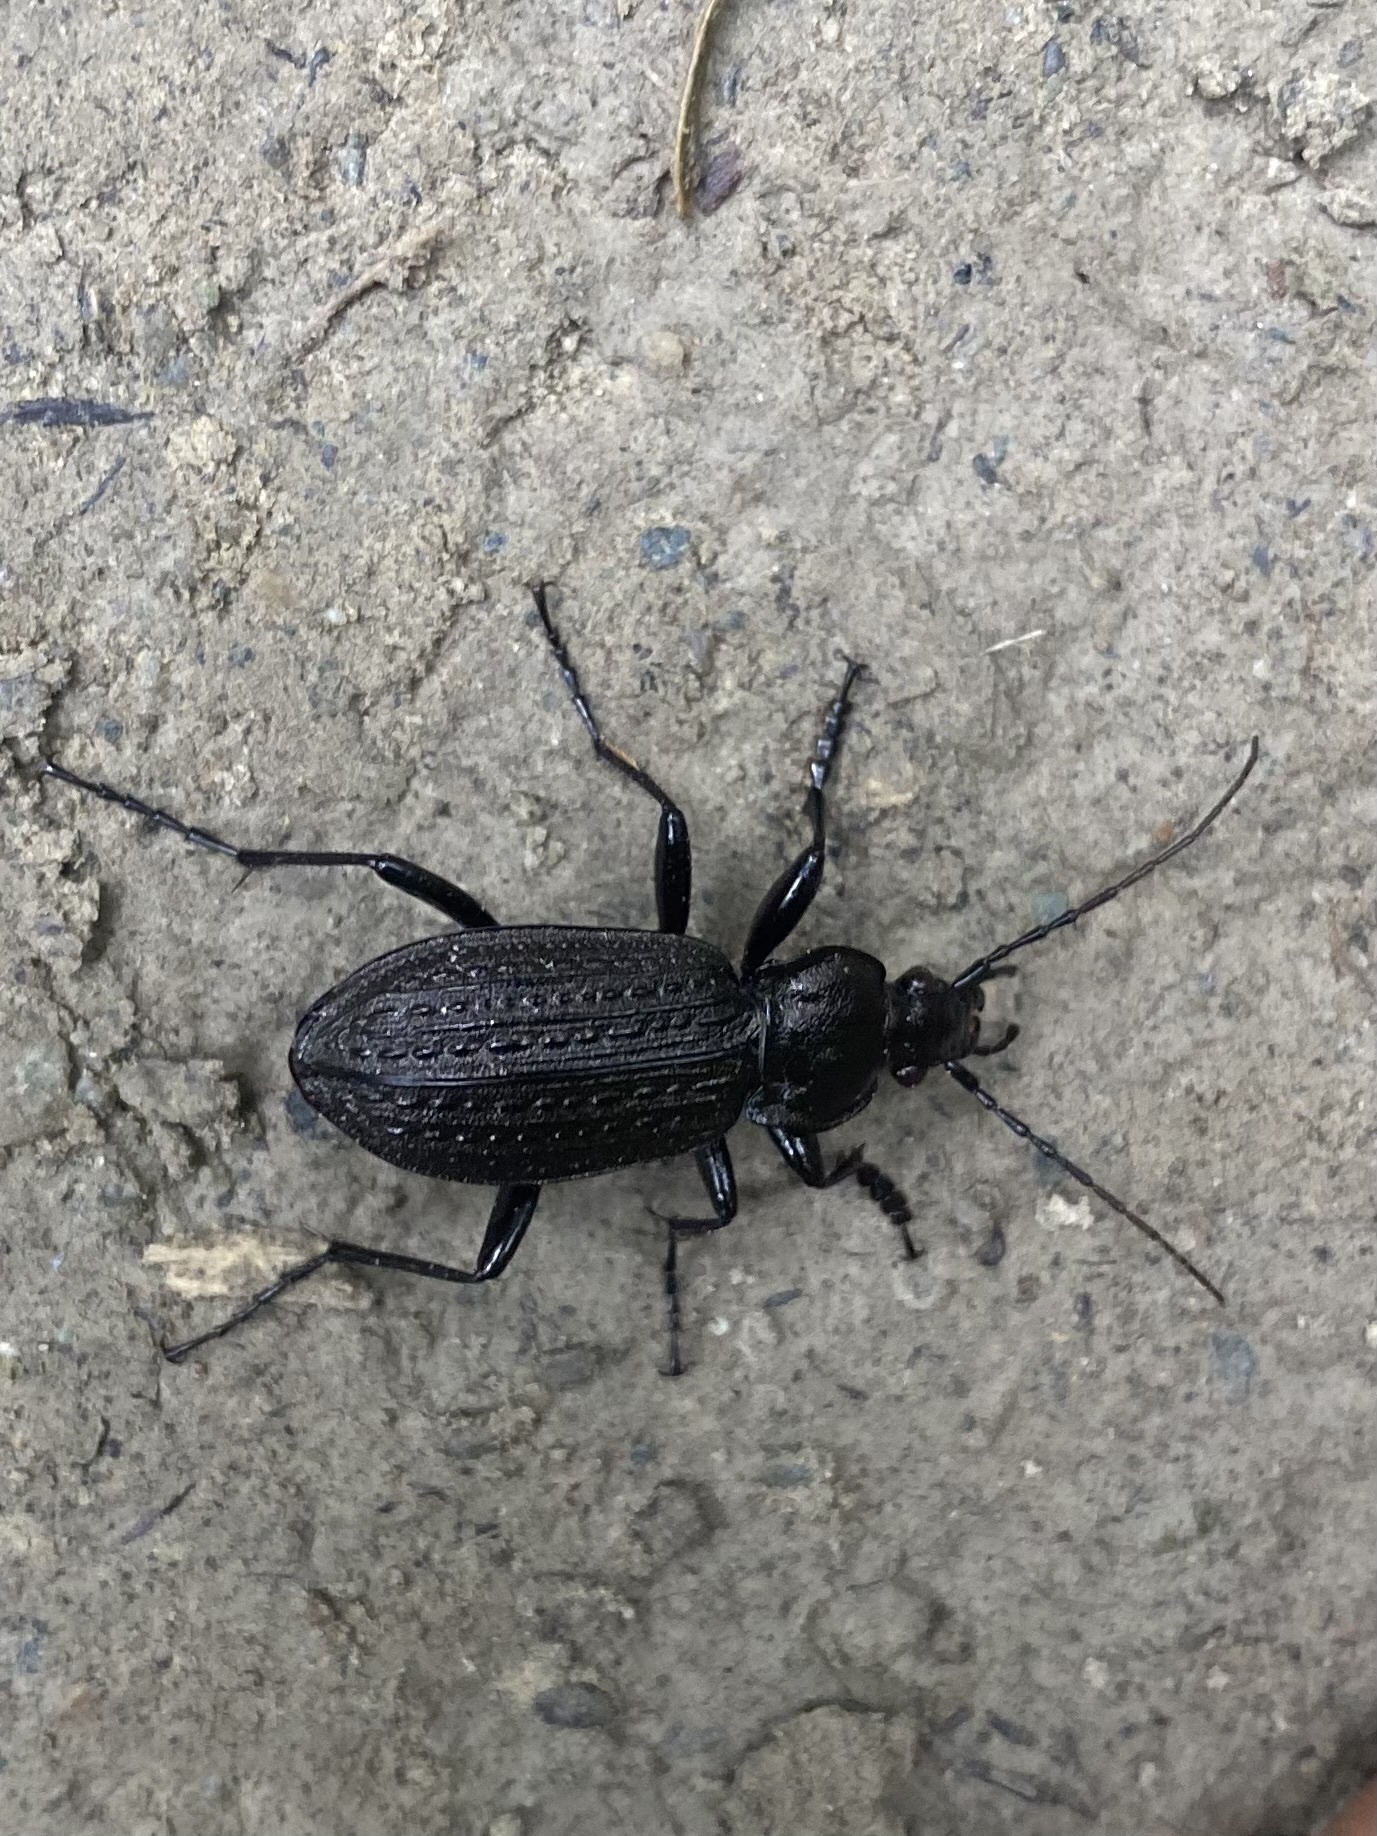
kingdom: Animalia
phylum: Arthropoda
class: Insecta
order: Coleoptera
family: Carabidae
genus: Carabus
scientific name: Carabus granulatus
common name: Granulate ground beetle
